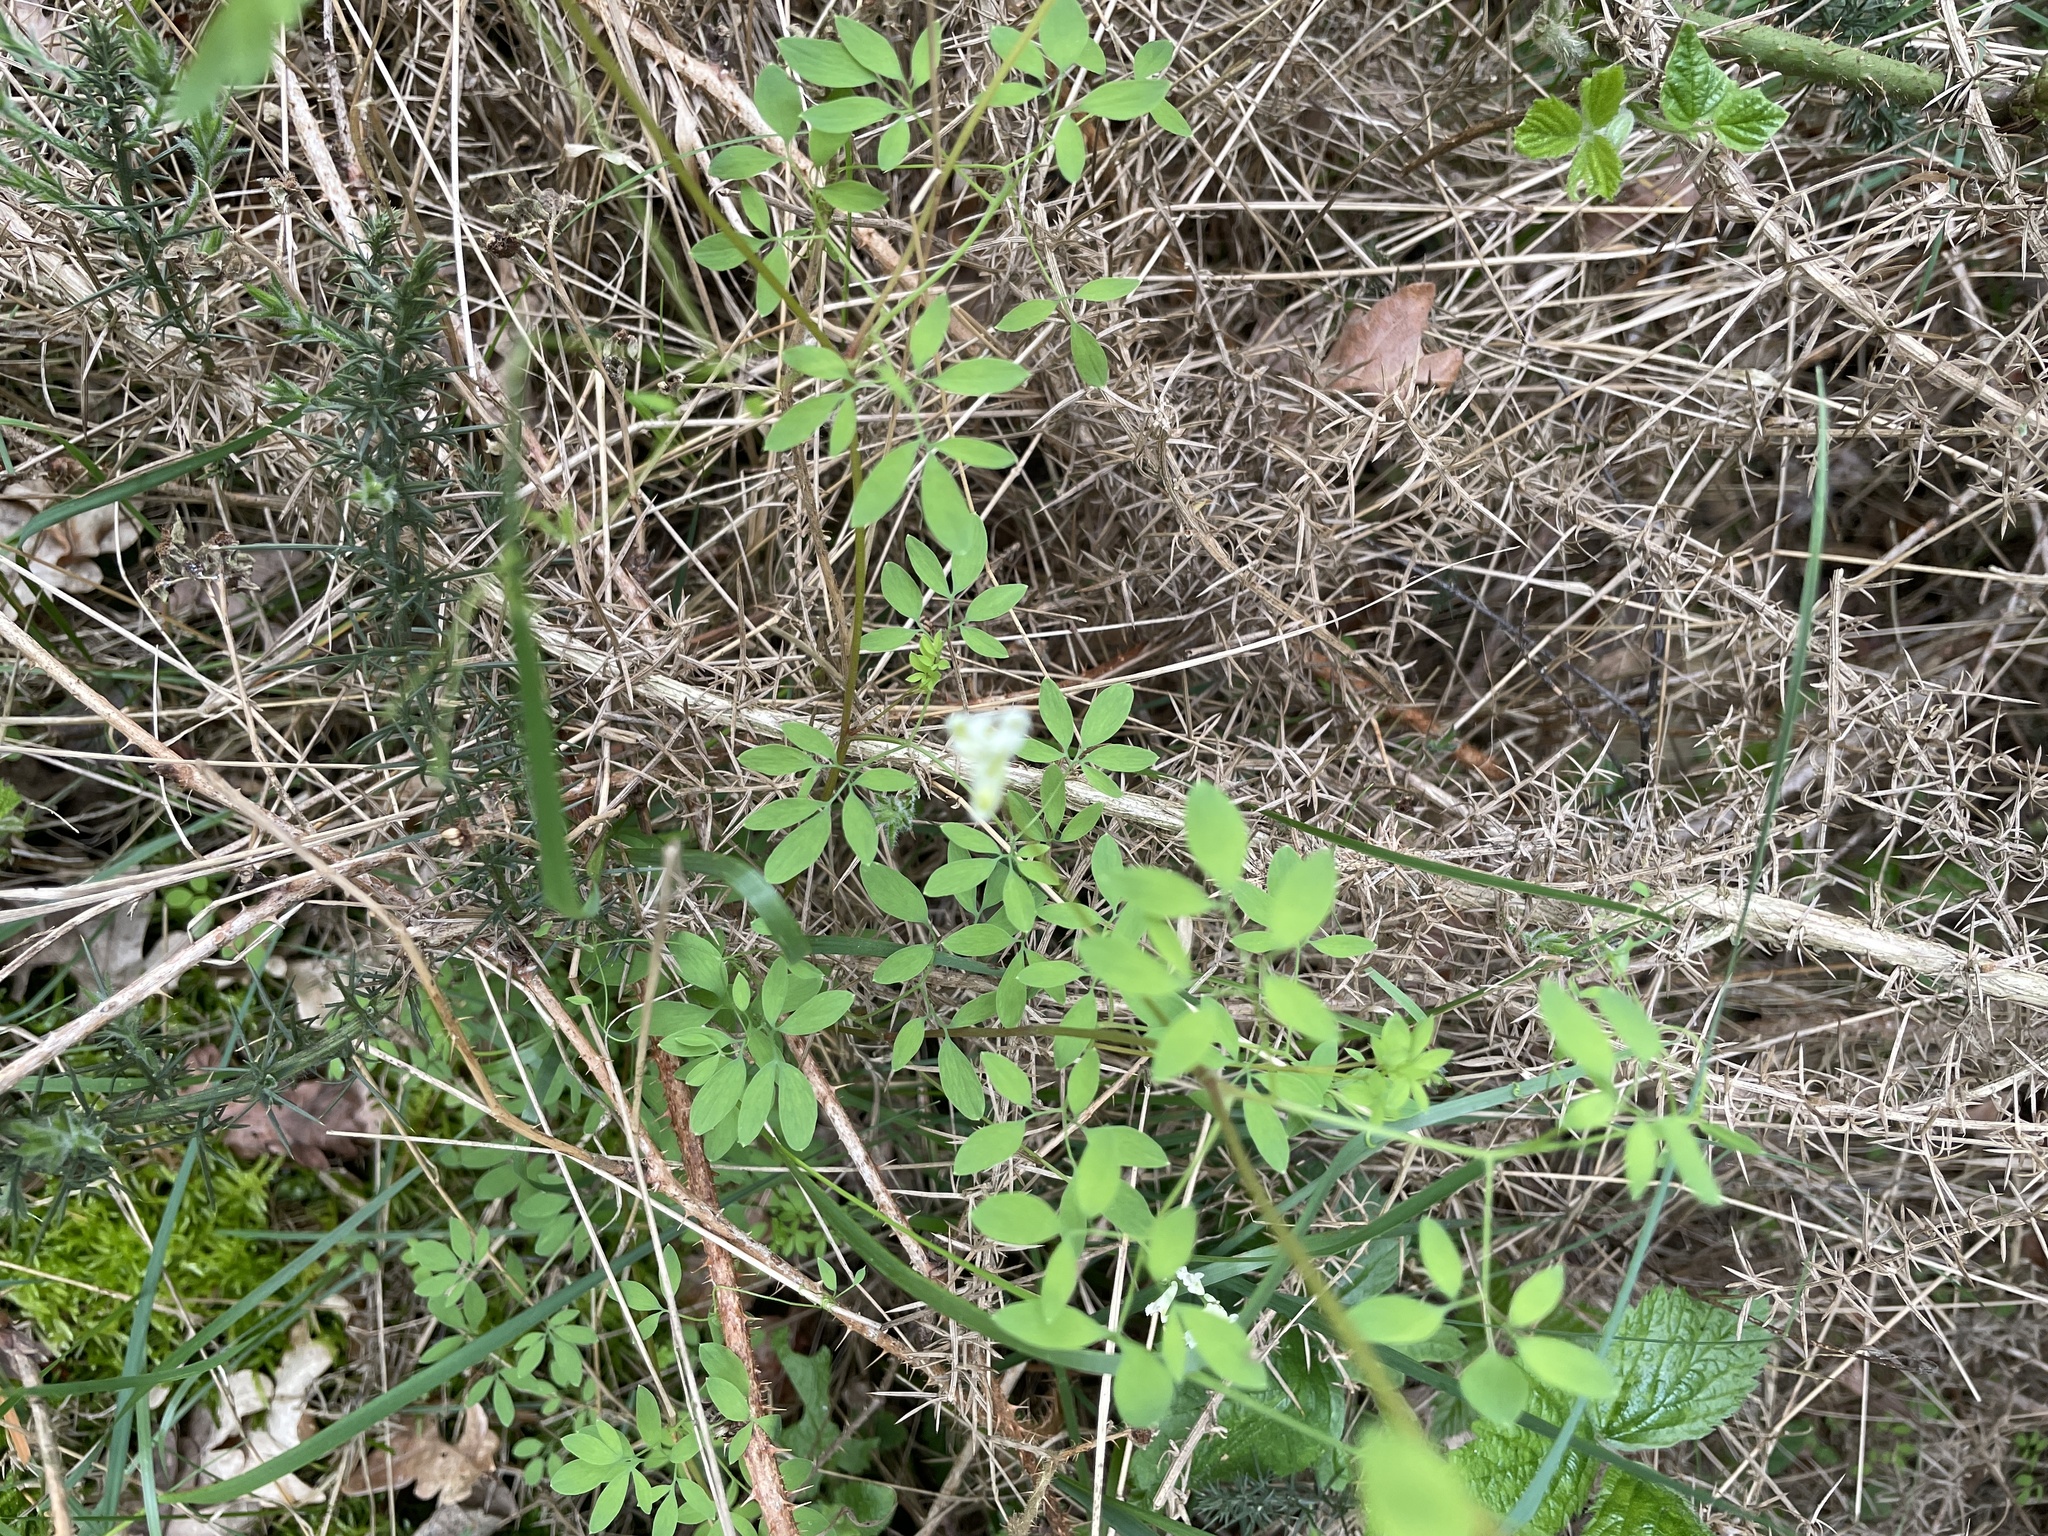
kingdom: Plantae
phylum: Tracheophyta
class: Magnoliopsida
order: Ranunculales
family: Papaveraceae
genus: Ceratocapnos
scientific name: Ceratocapnos claviculata
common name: Climbing corydalis
